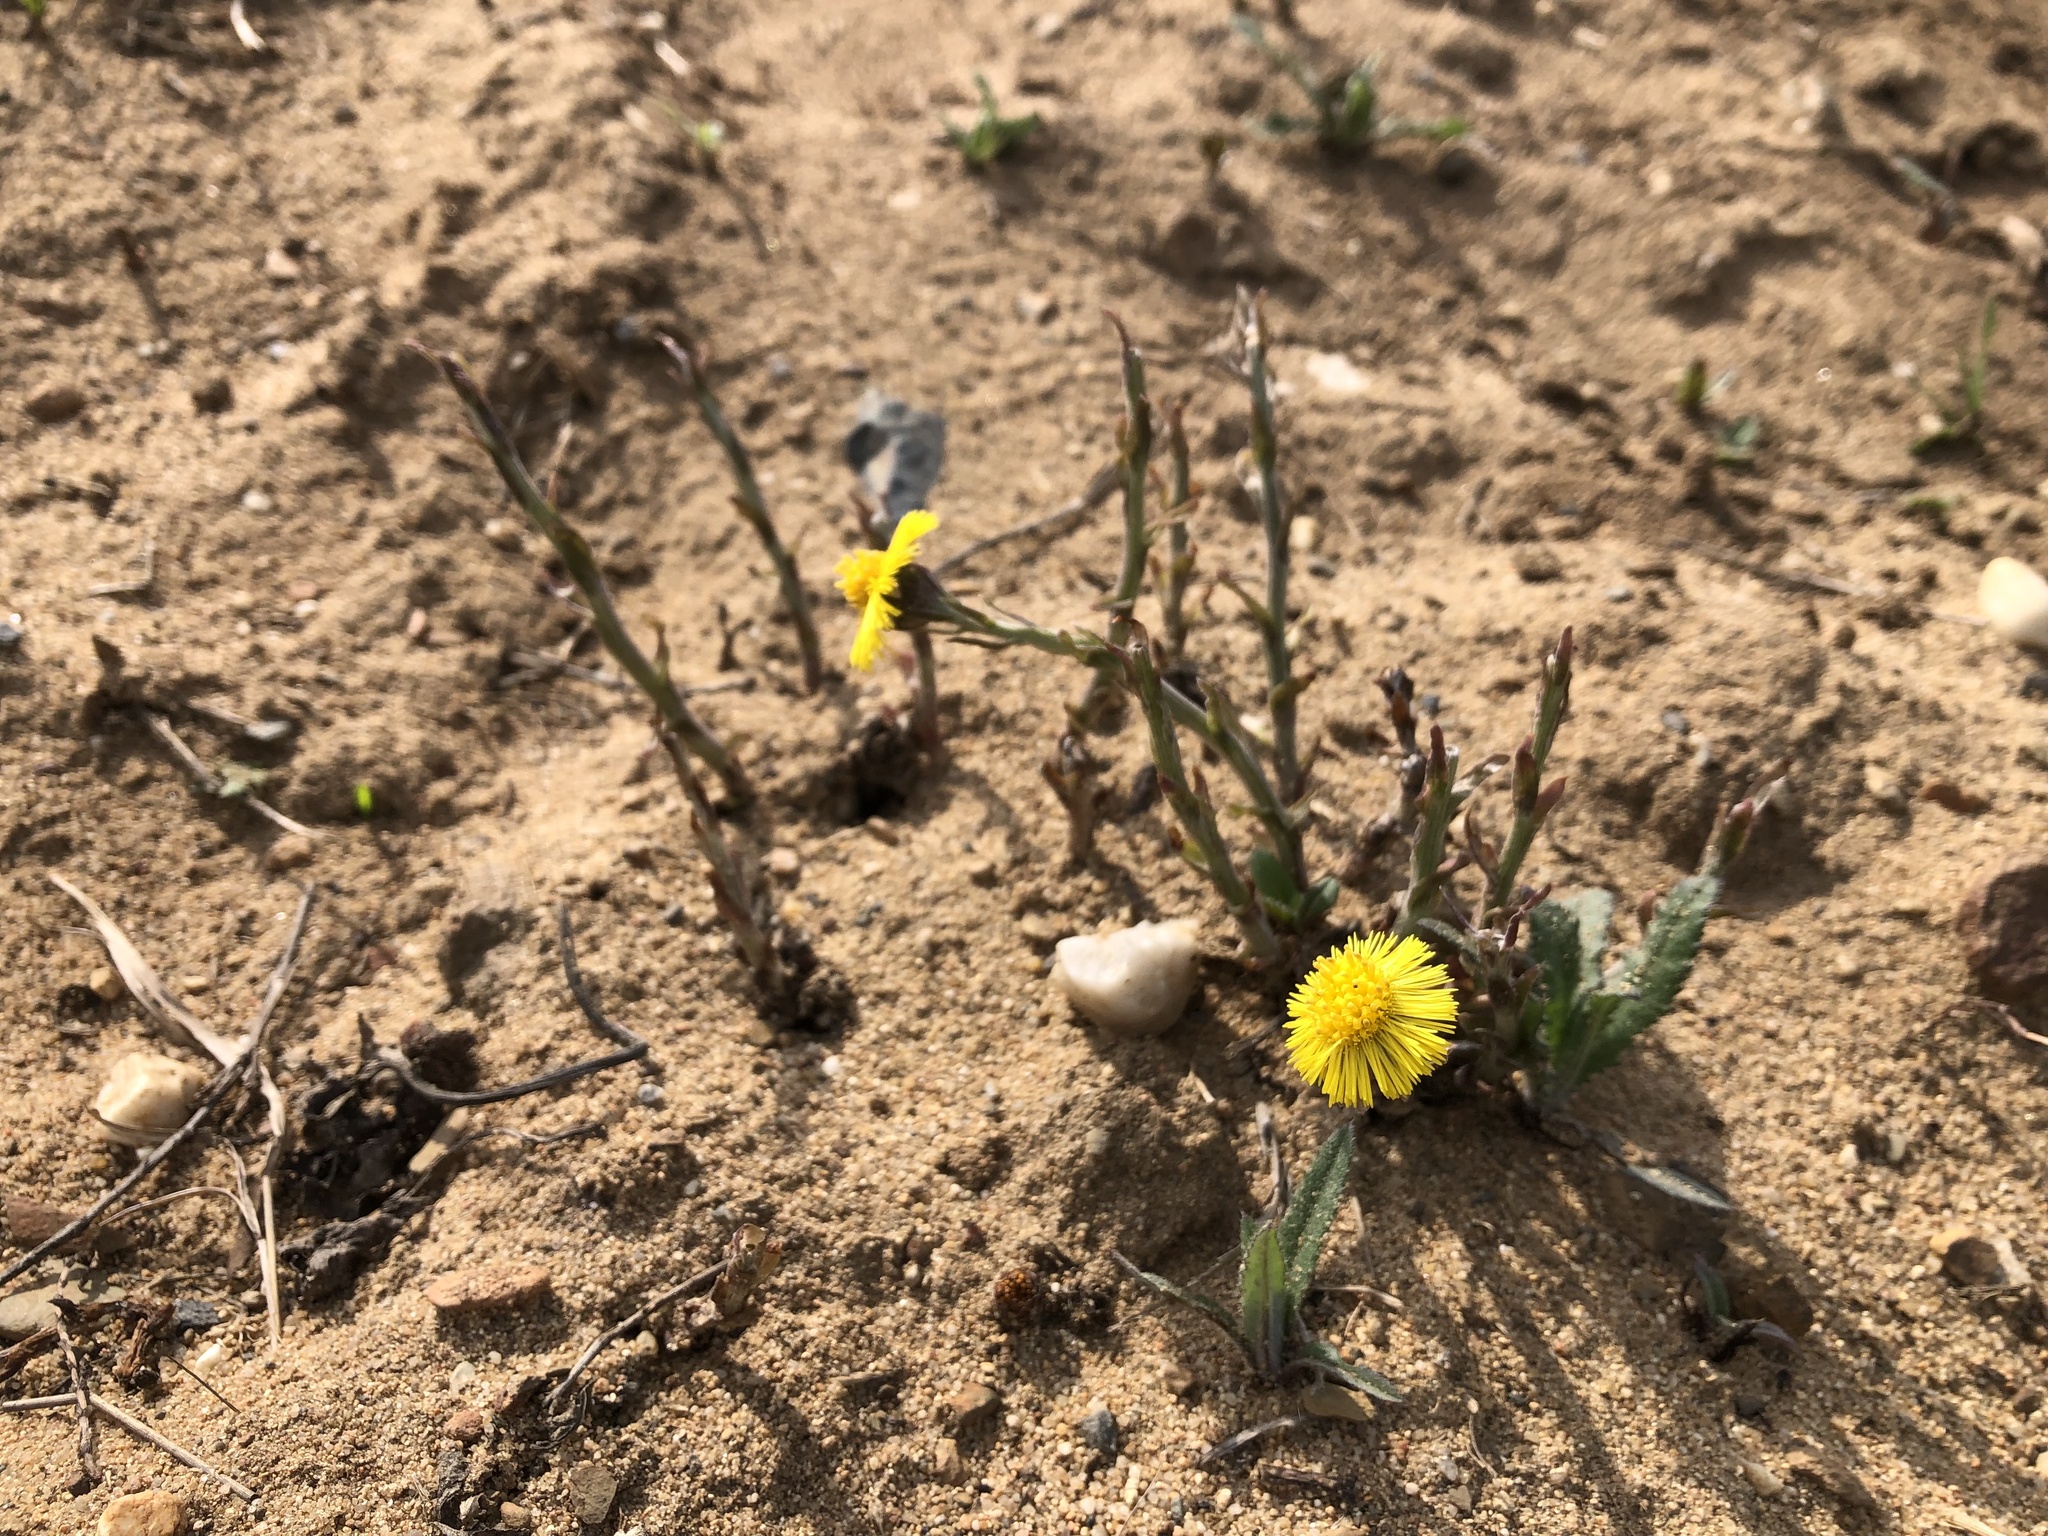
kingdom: Plantae
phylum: Tracheophyta
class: Magnoliopsida
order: Asterales
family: Asteraceae
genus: Tussilago
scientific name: Tussilago farfara
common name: Coltsfoot
